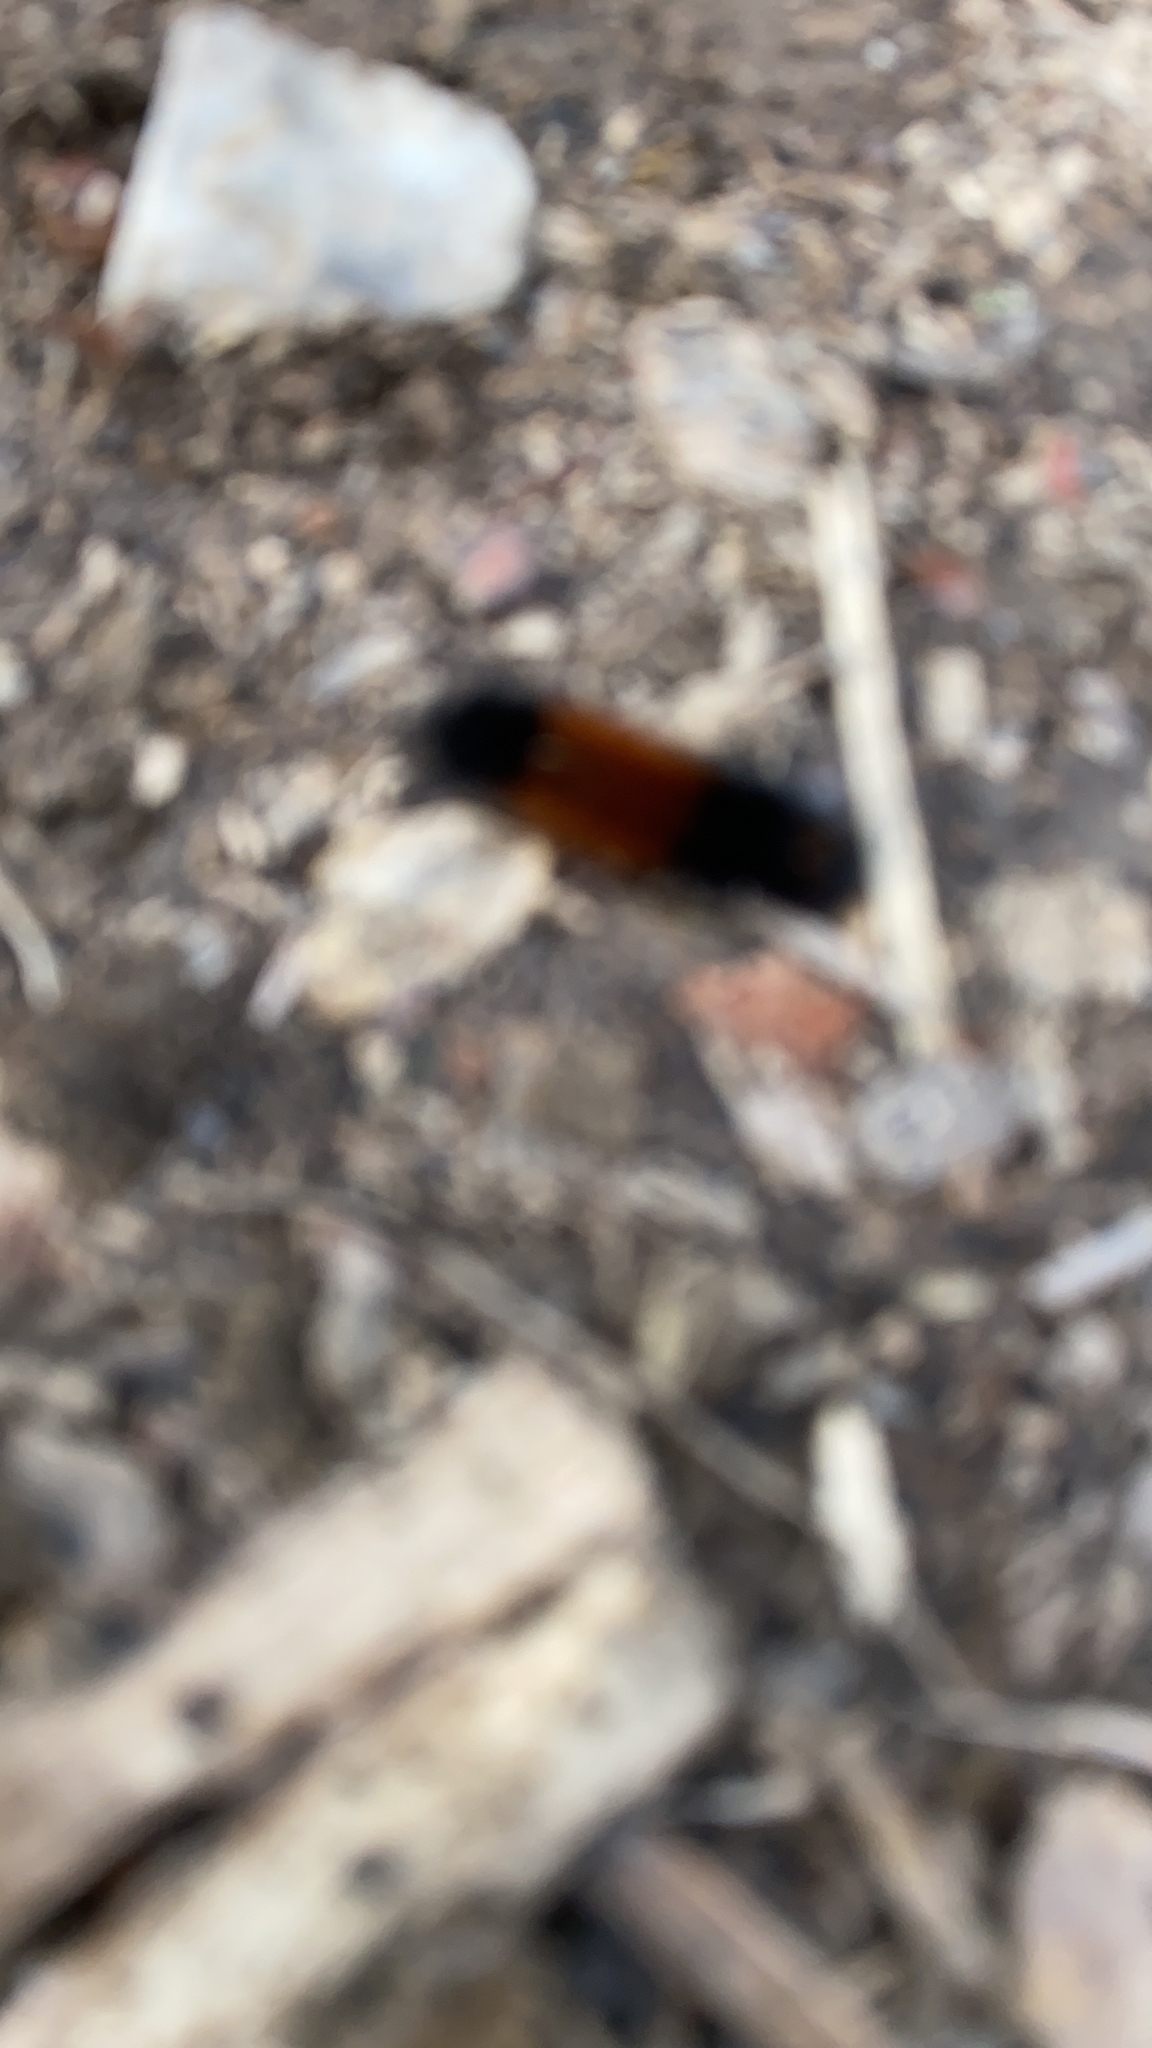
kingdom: Animalia
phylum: Arthropoda
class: Insecta
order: Lepidoptera
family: Erebidae
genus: Pyrrharctia
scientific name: Pyrrharctia isabella
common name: Isabella tiger moth
